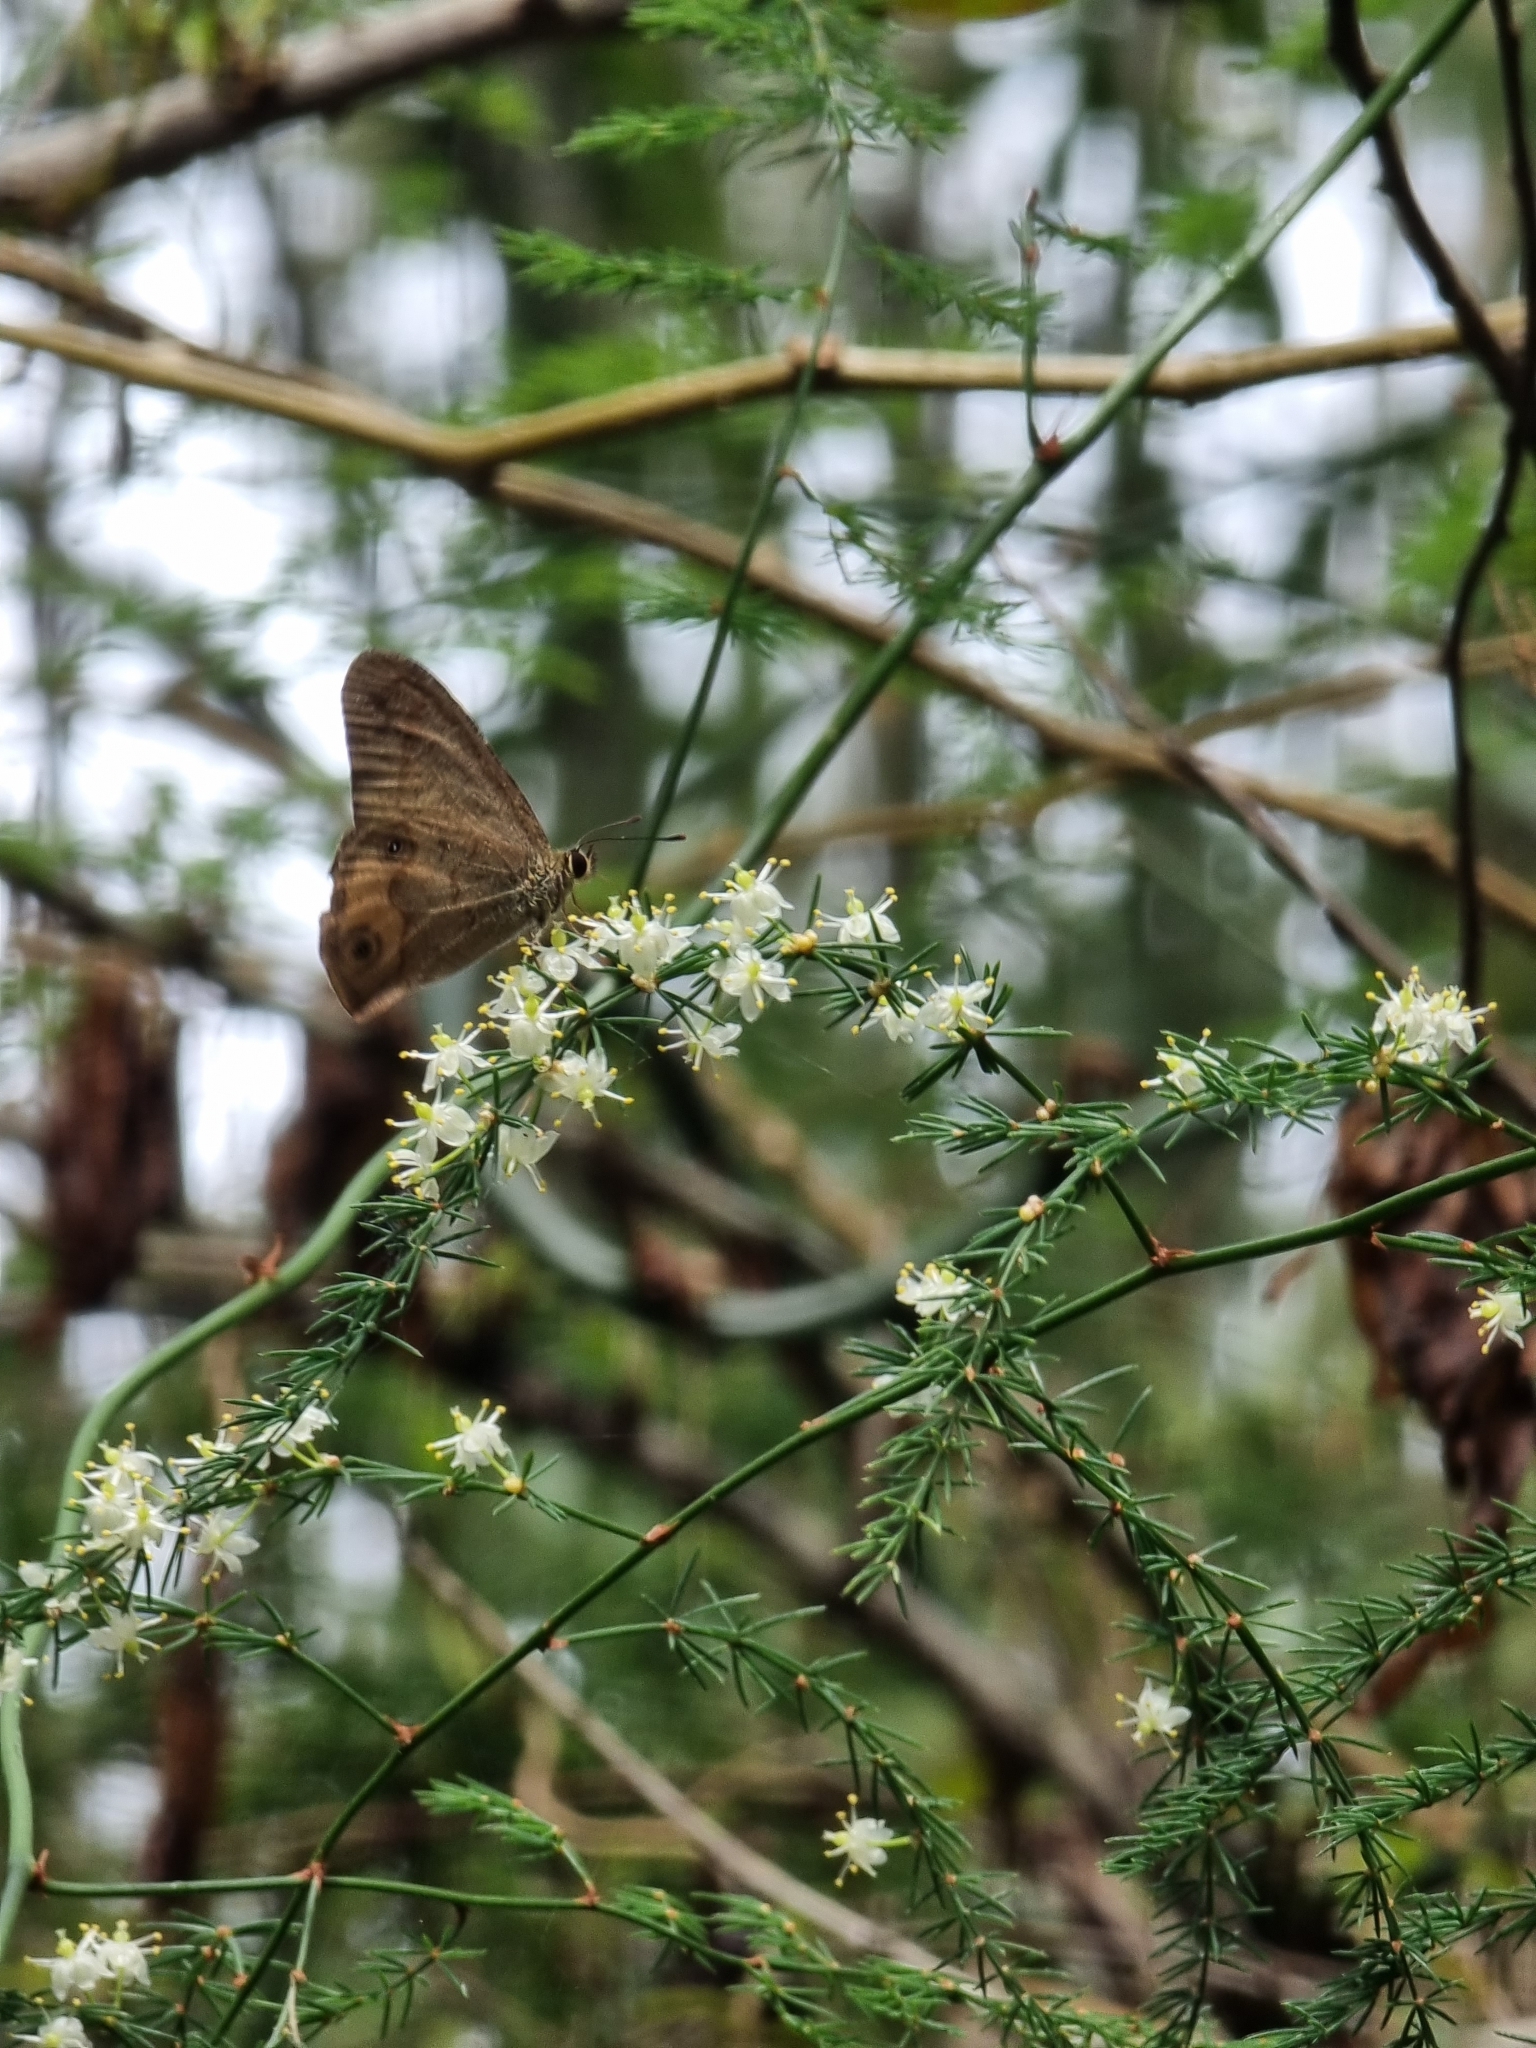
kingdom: Animalia
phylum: Arthropoda
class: Insecta
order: Lepidoptera
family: Nymphalidae
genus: Hypocysta
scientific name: Hypocysta metirius
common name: Brown ringlet
